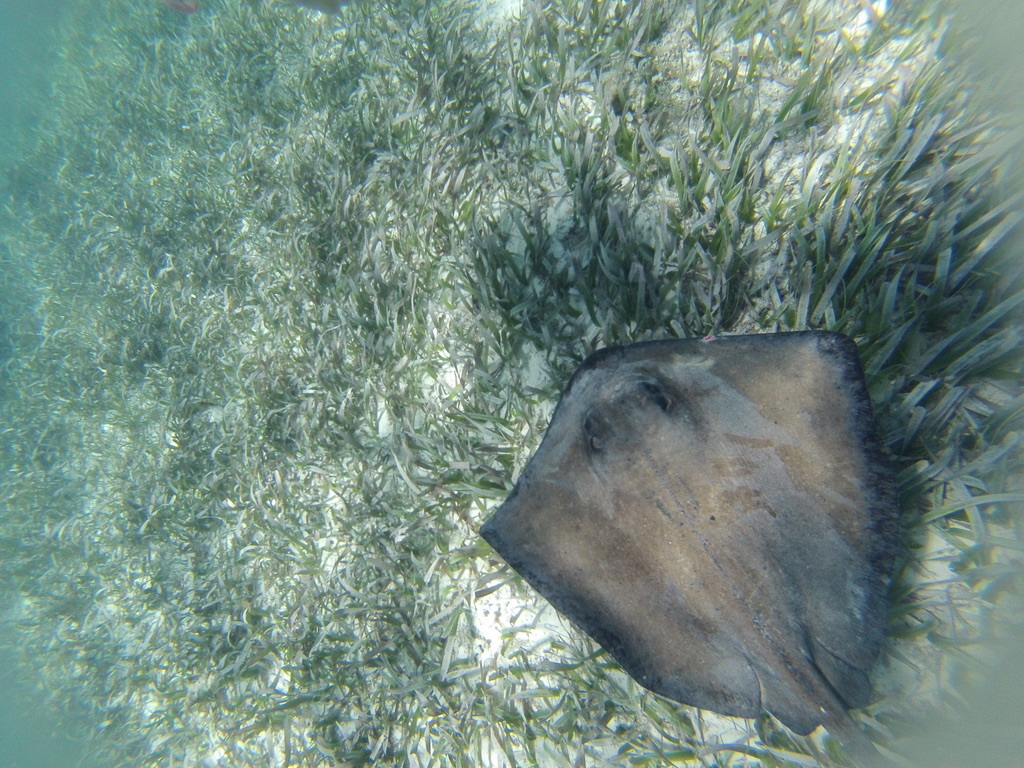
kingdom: Animalia
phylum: Chordata
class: Elasmobranchii
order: Myliobatiformes
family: Dasyatidae
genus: Hypanus
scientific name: Hypanus americanus
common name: Southern stingray
